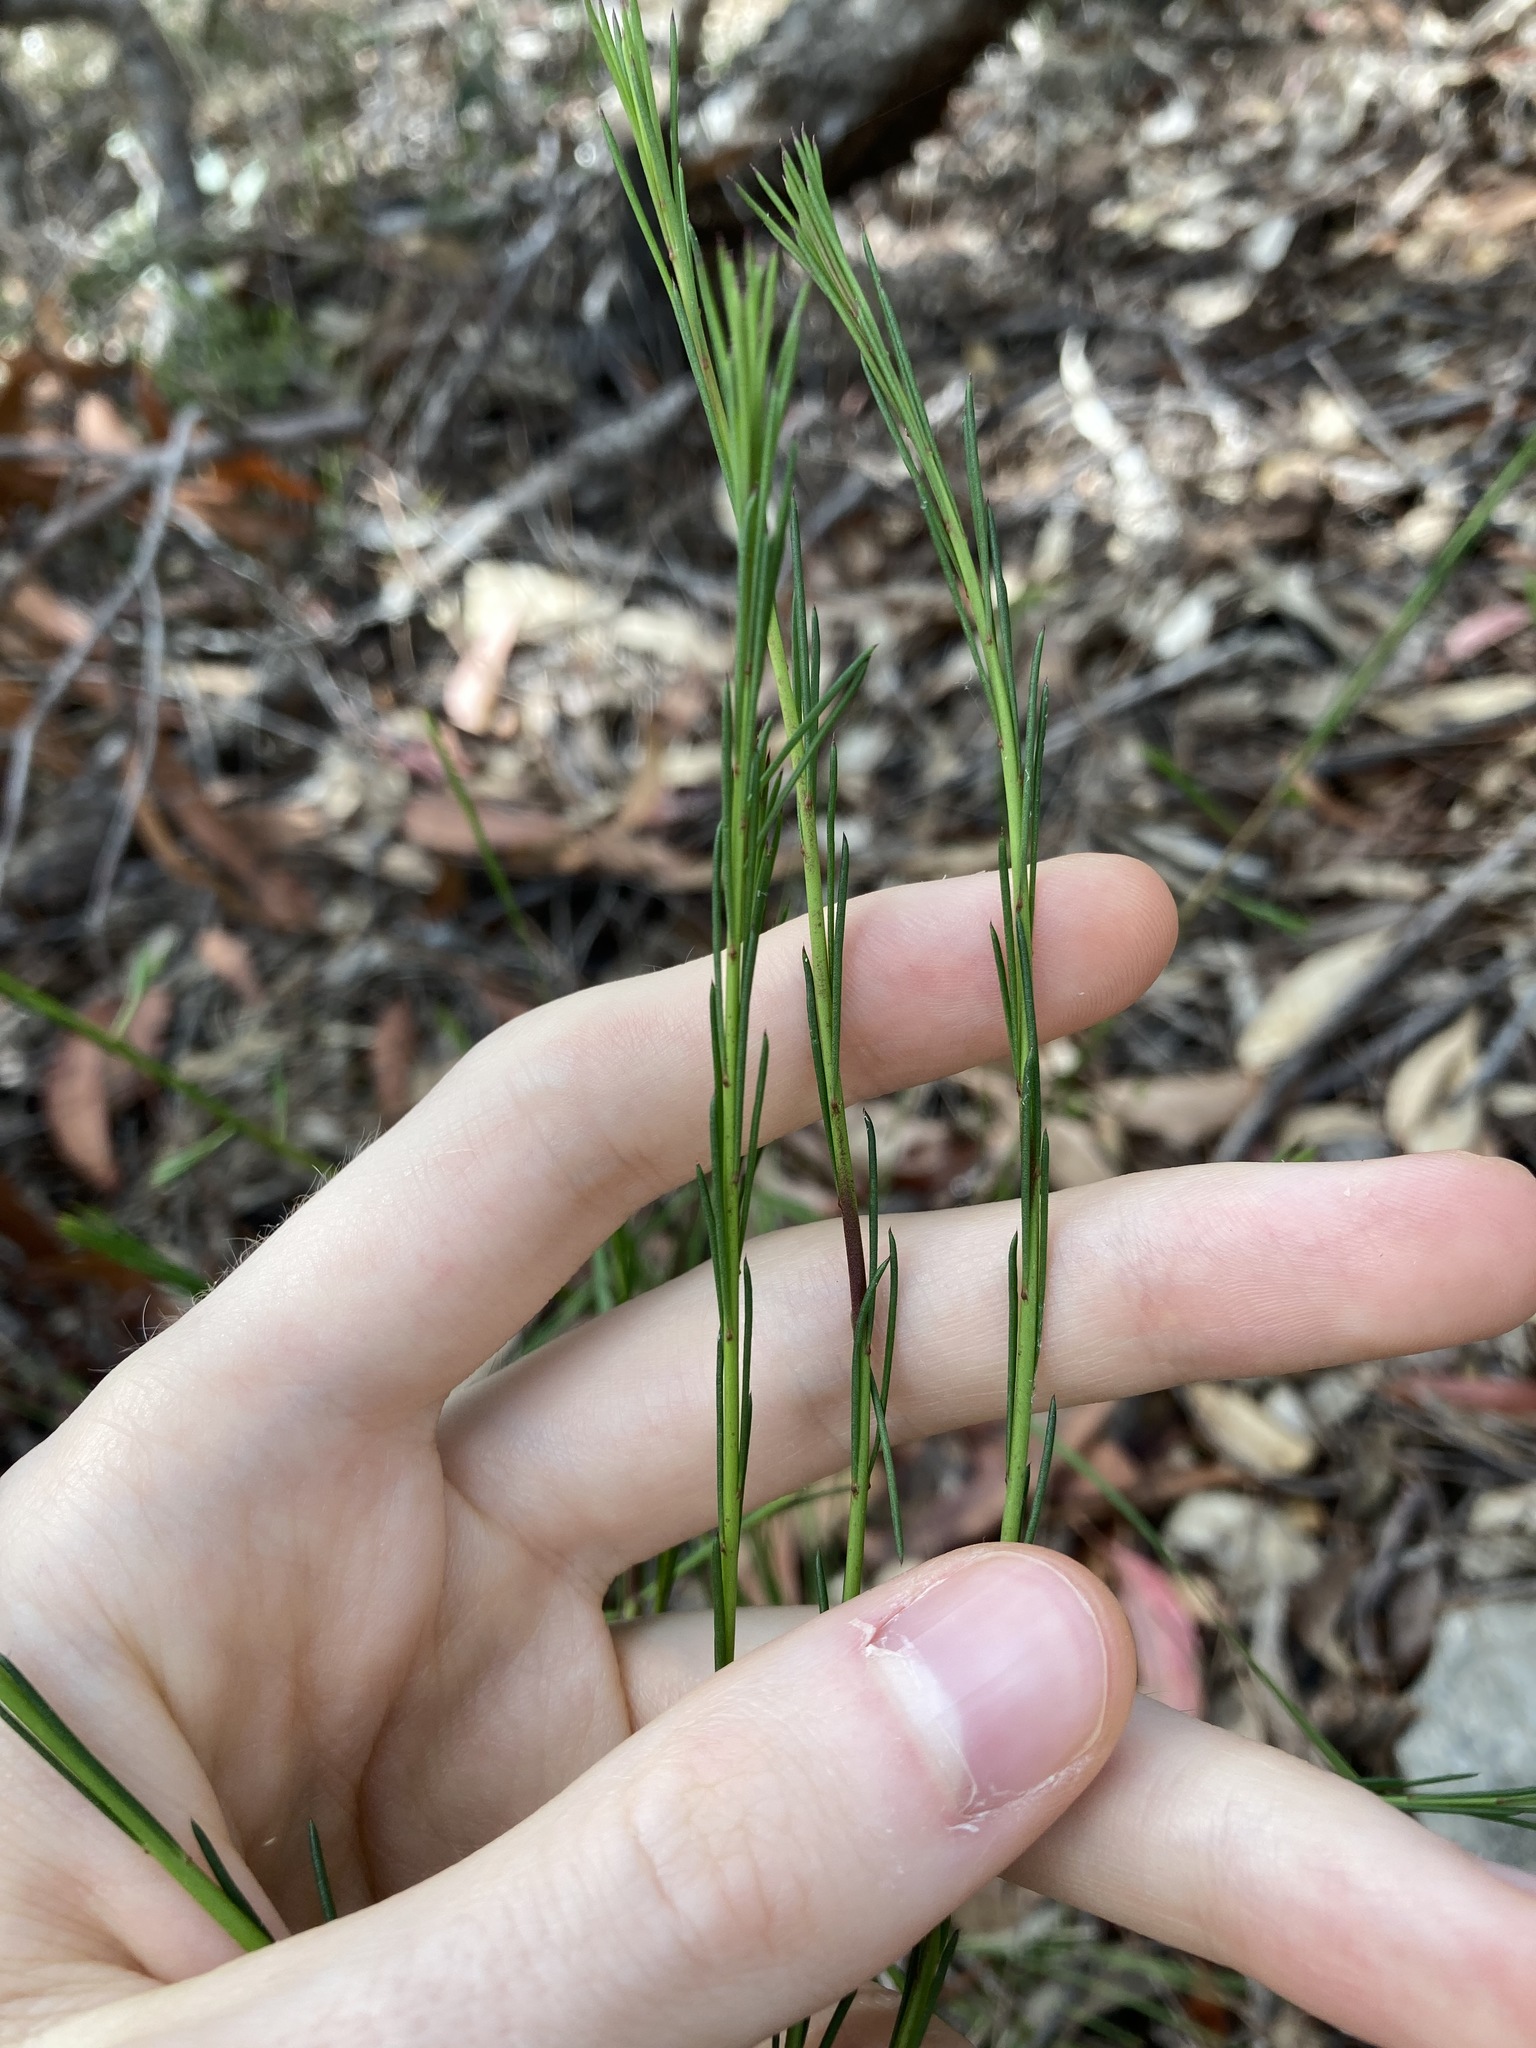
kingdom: Plantae
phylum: Tracheophyta
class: Magnoliopsida
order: Apiales
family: Apiaceae
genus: Platysace
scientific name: Platysace linearifolia
